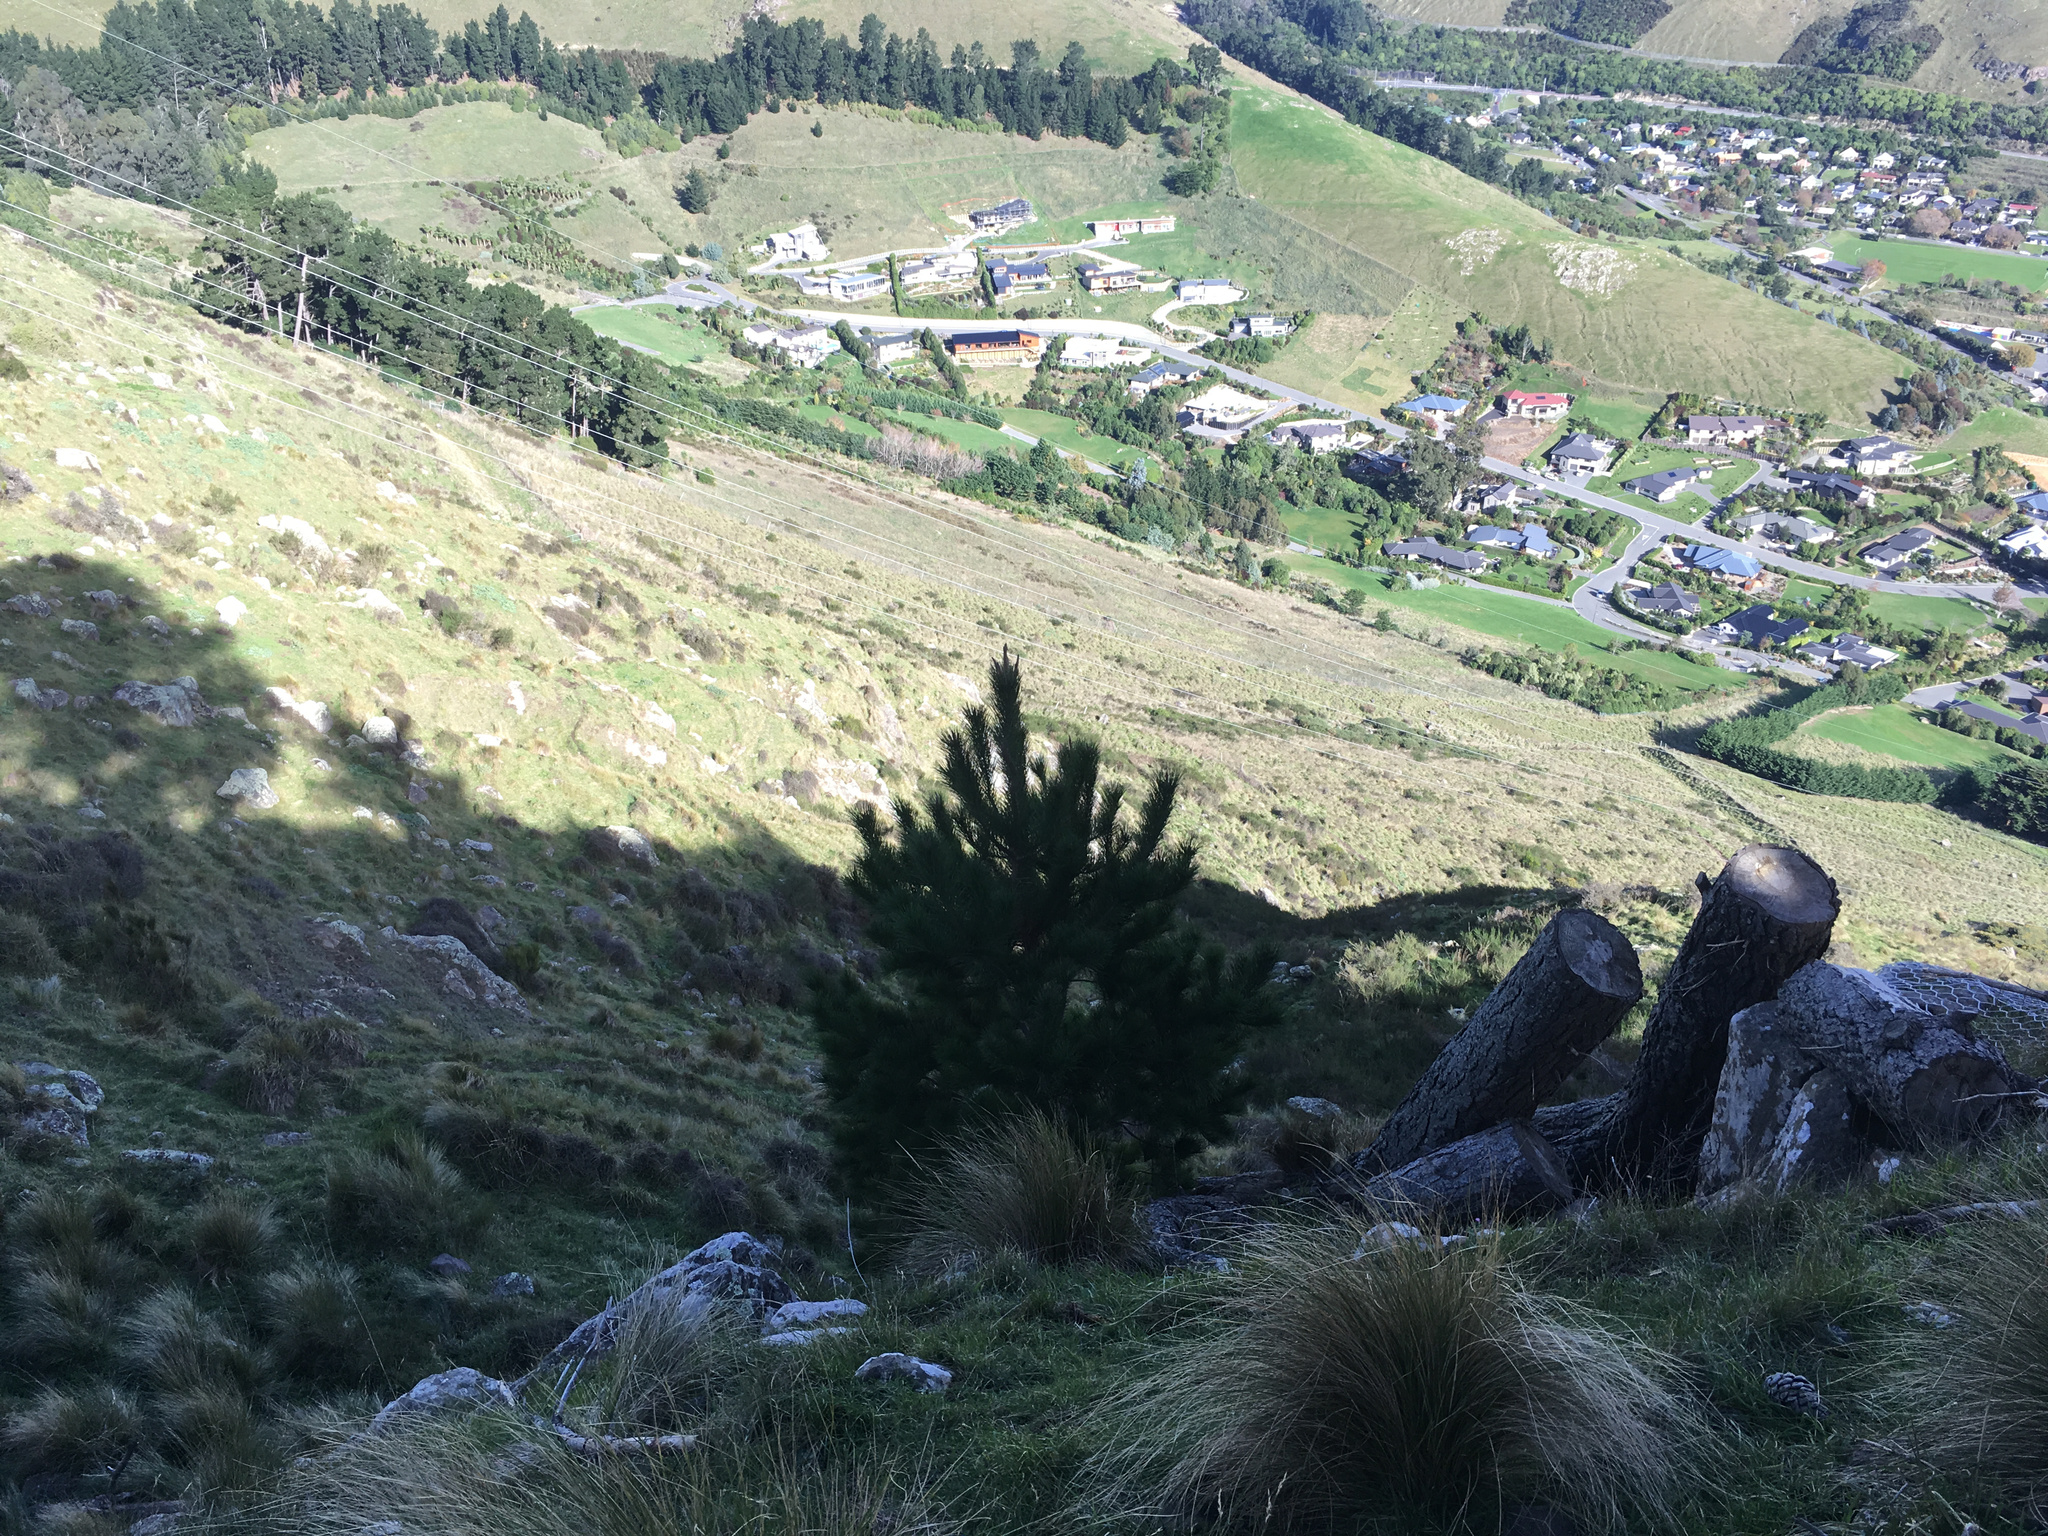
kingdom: Plantae
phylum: Tracheophyta
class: Pinopsida
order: Pinales
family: Pinaceae
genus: Pinus
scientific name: Pinus radiata
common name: Monterey pine
